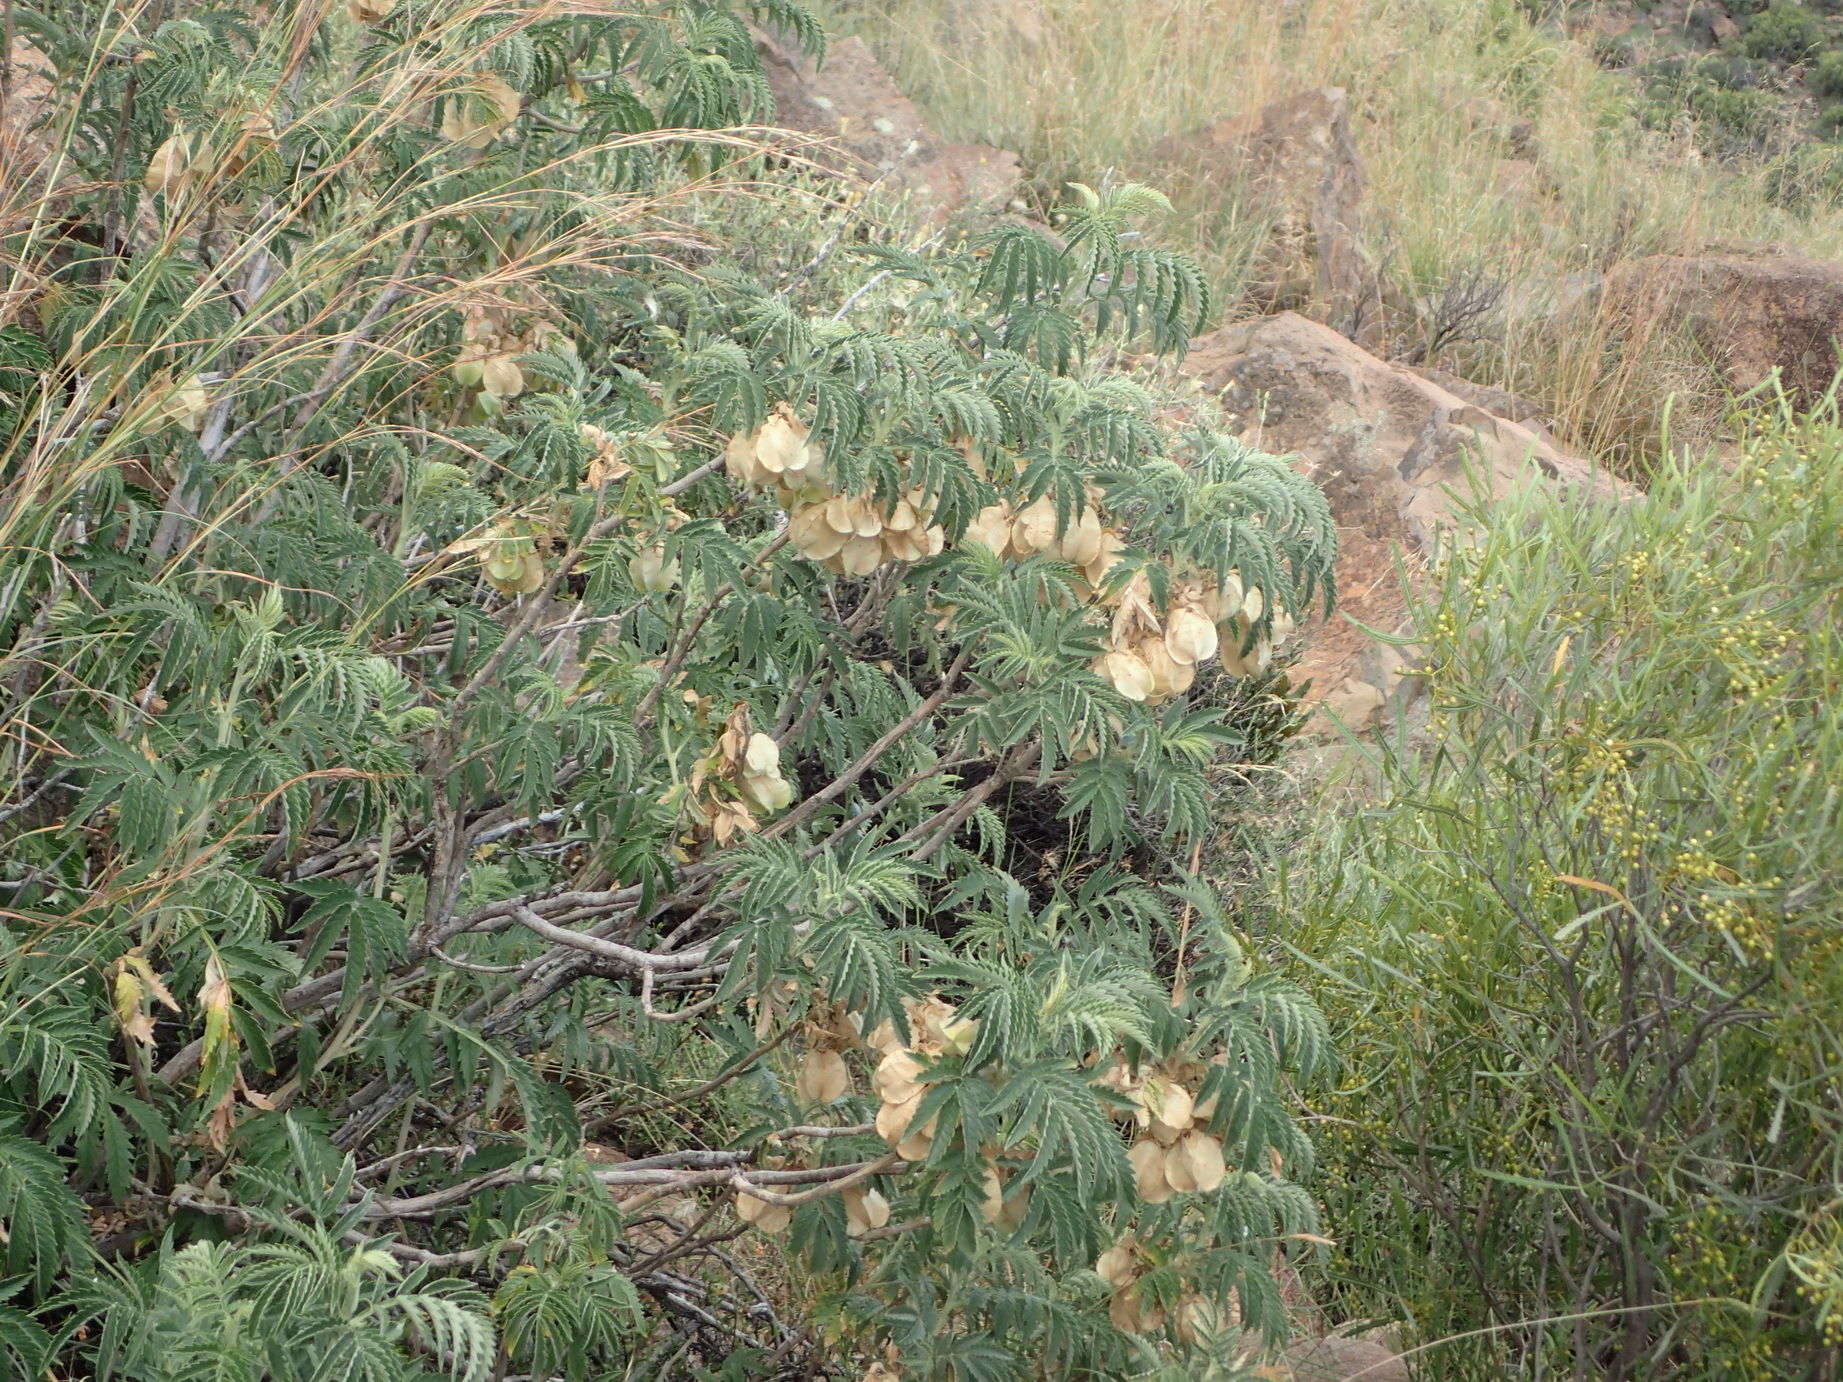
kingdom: Plantae
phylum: Tracheophyta
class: Magnoliopsida
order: Geraniales
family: Melianthaceae
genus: Melianthus
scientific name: Melianthus comosus
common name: Touch-me-not
